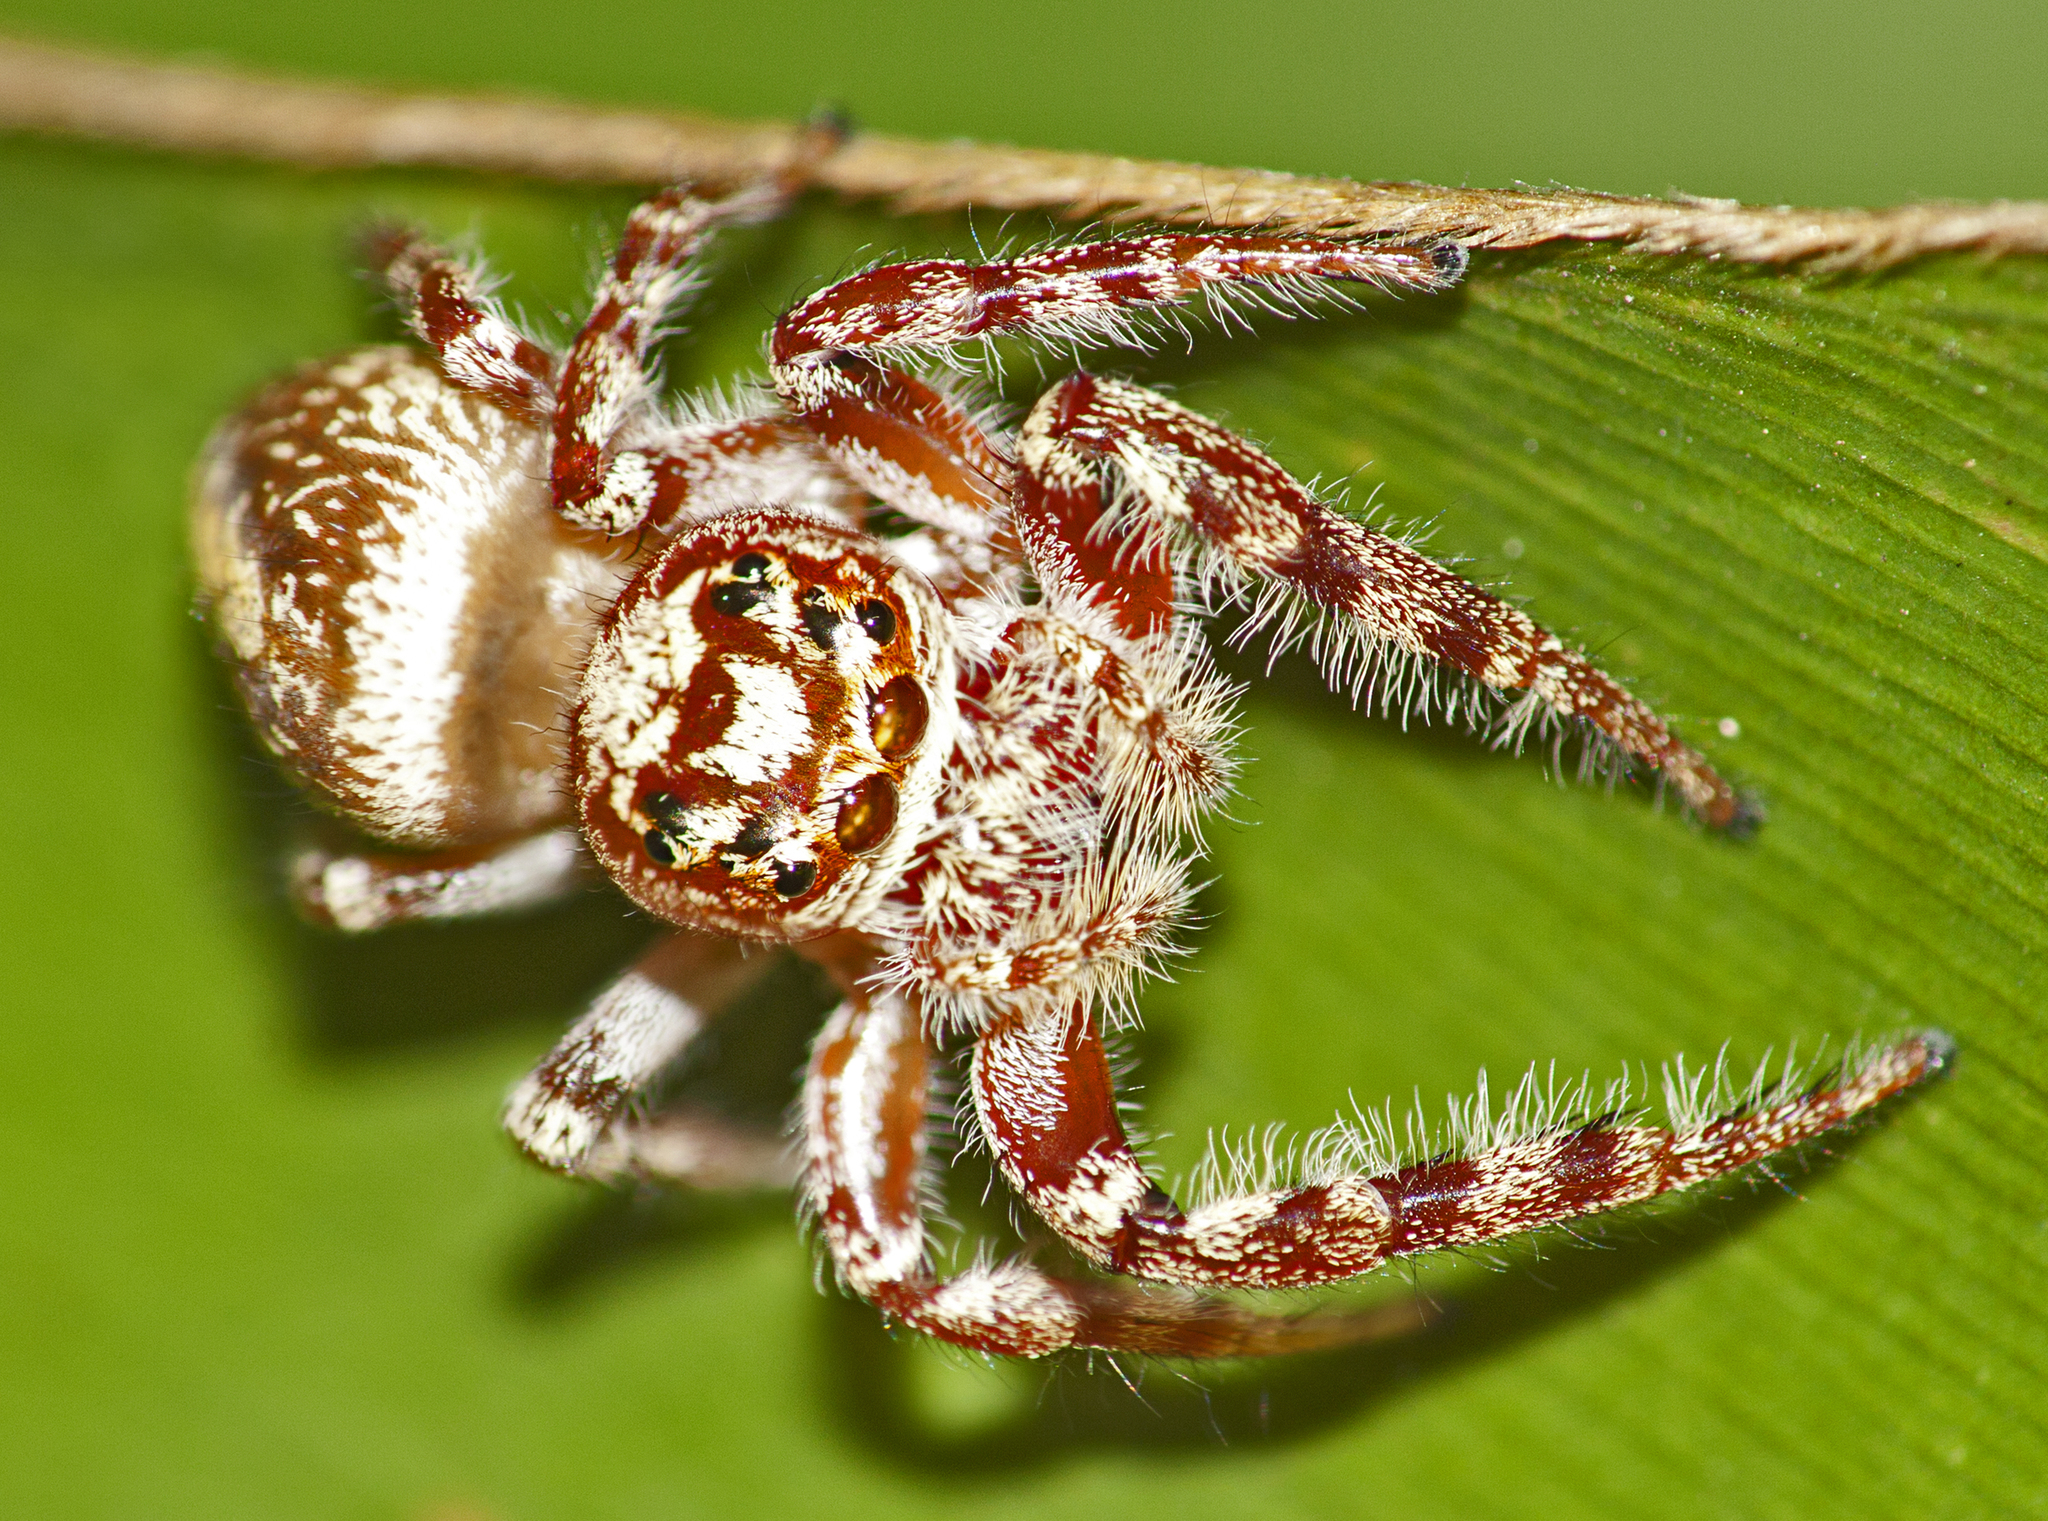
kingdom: Animalia
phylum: Arthropoda
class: Arachnida
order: Araneae
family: Salticidae
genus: Opisthoncus
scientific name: Opisthoncus quadratarius
